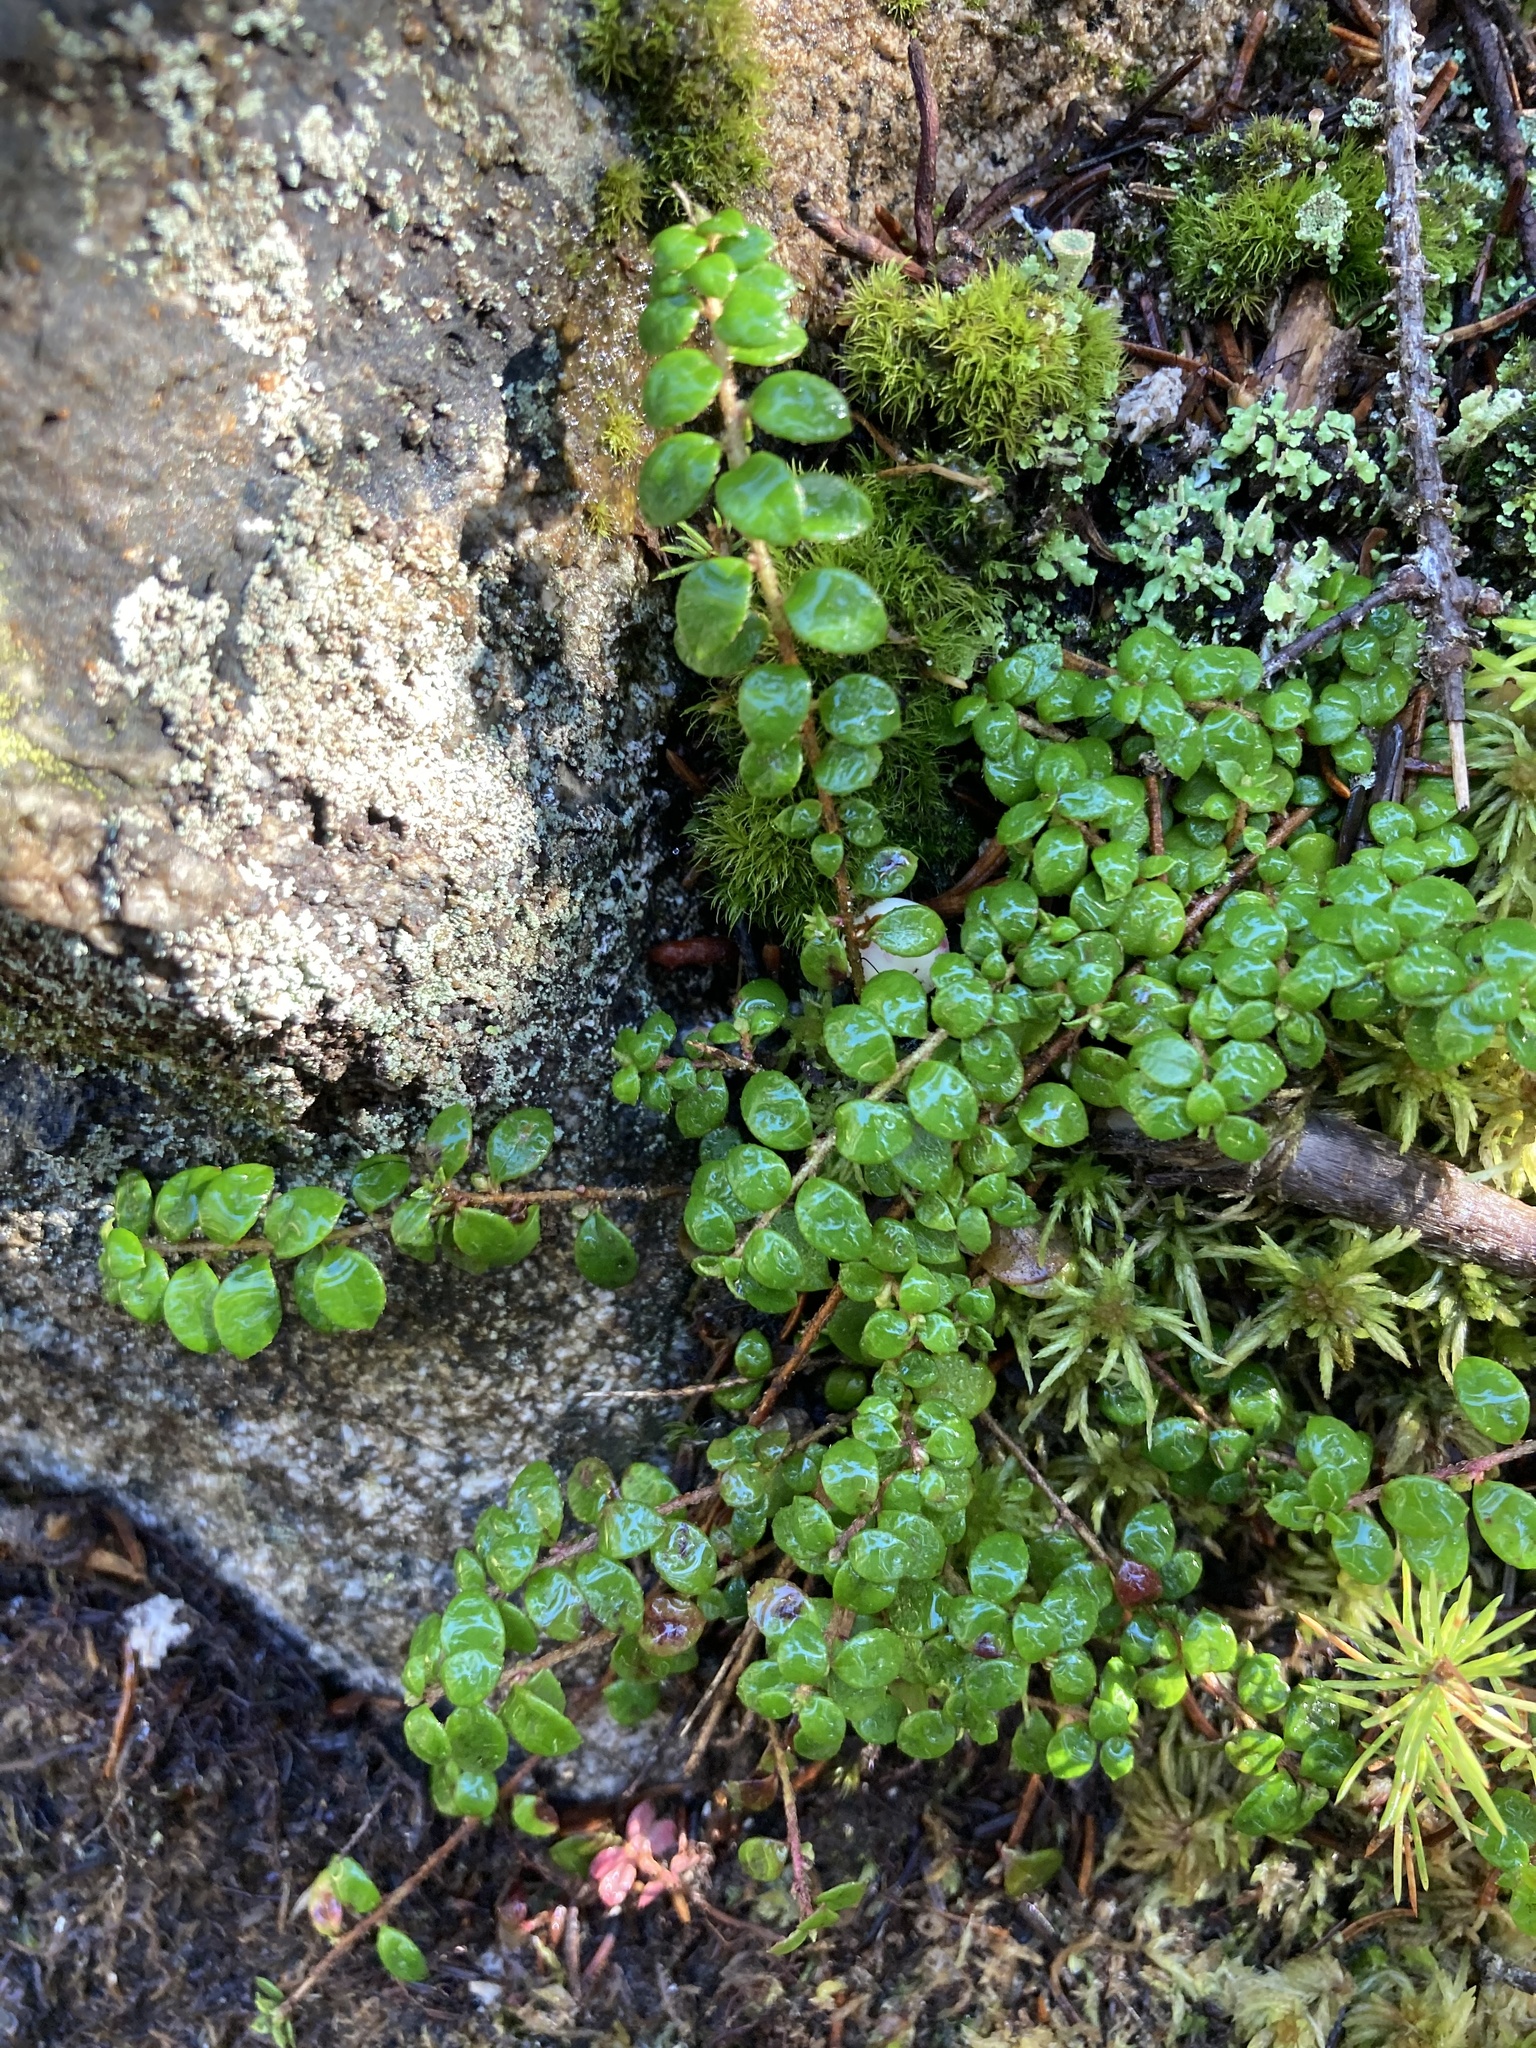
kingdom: Plantae
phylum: Tracheophyta
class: Magnoliopsida
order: Ericales
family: Ericaceae
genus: Gaultheria
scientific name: Gaultheria hispidula
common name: Cancer wintergreen
